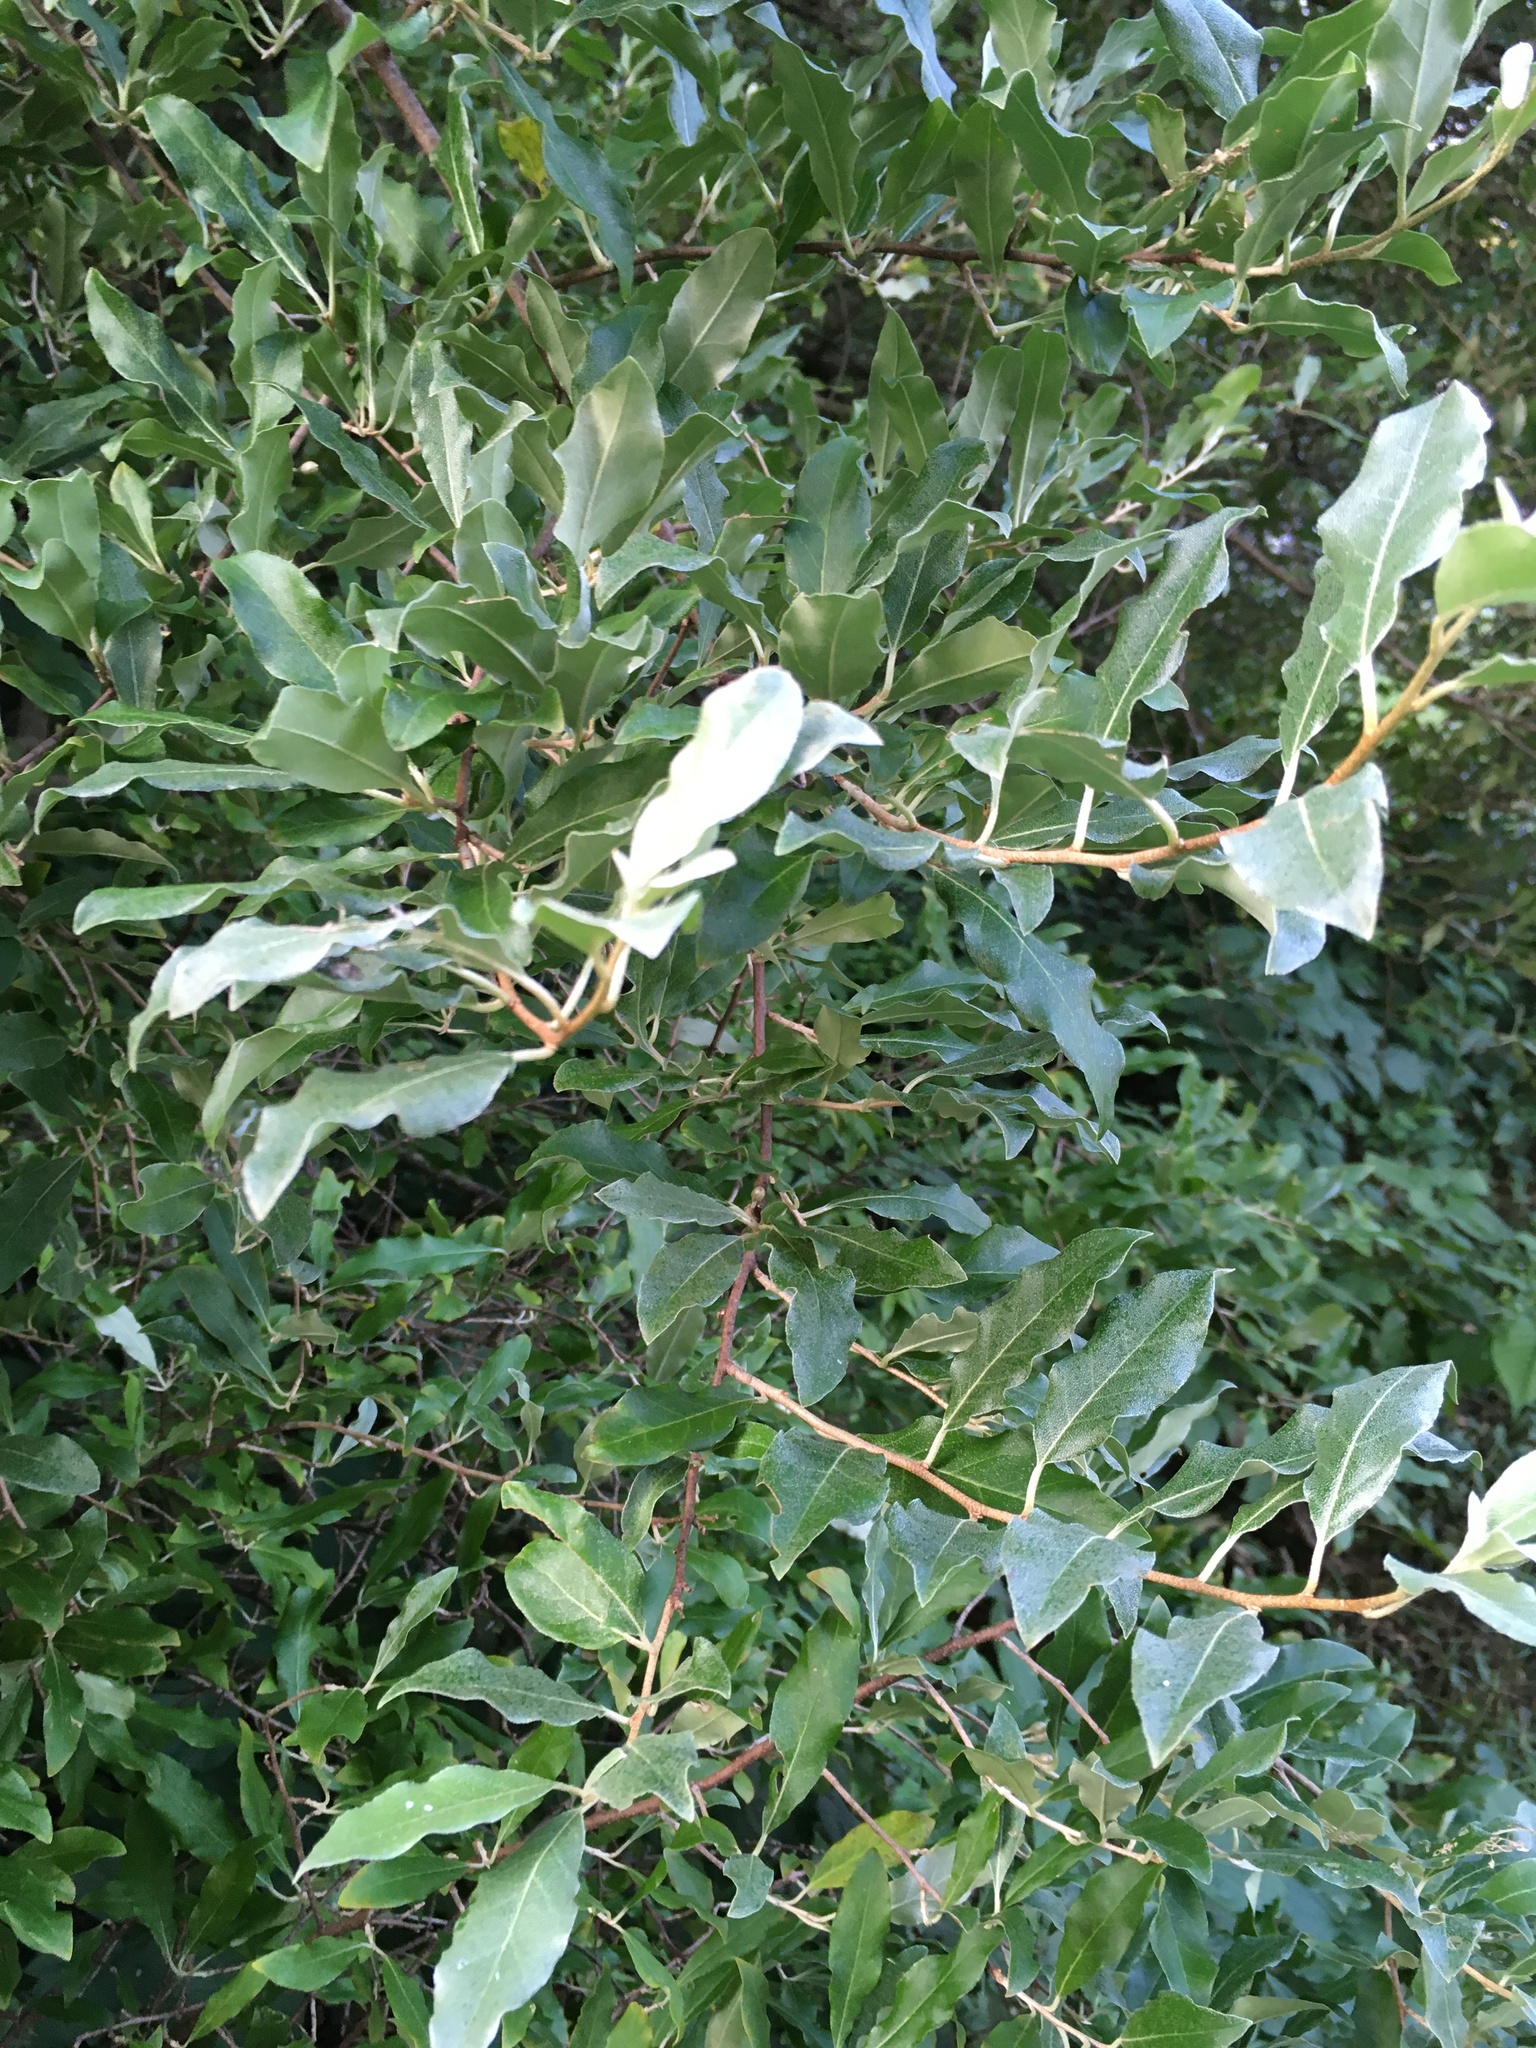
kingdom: Plantae
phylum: Tracheophyta
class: Magnoliopsida
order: Rosales
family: Elaeagnaceae
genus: Elaeagnus
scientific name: Elaeagnus umbellata
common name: Autumn olive
